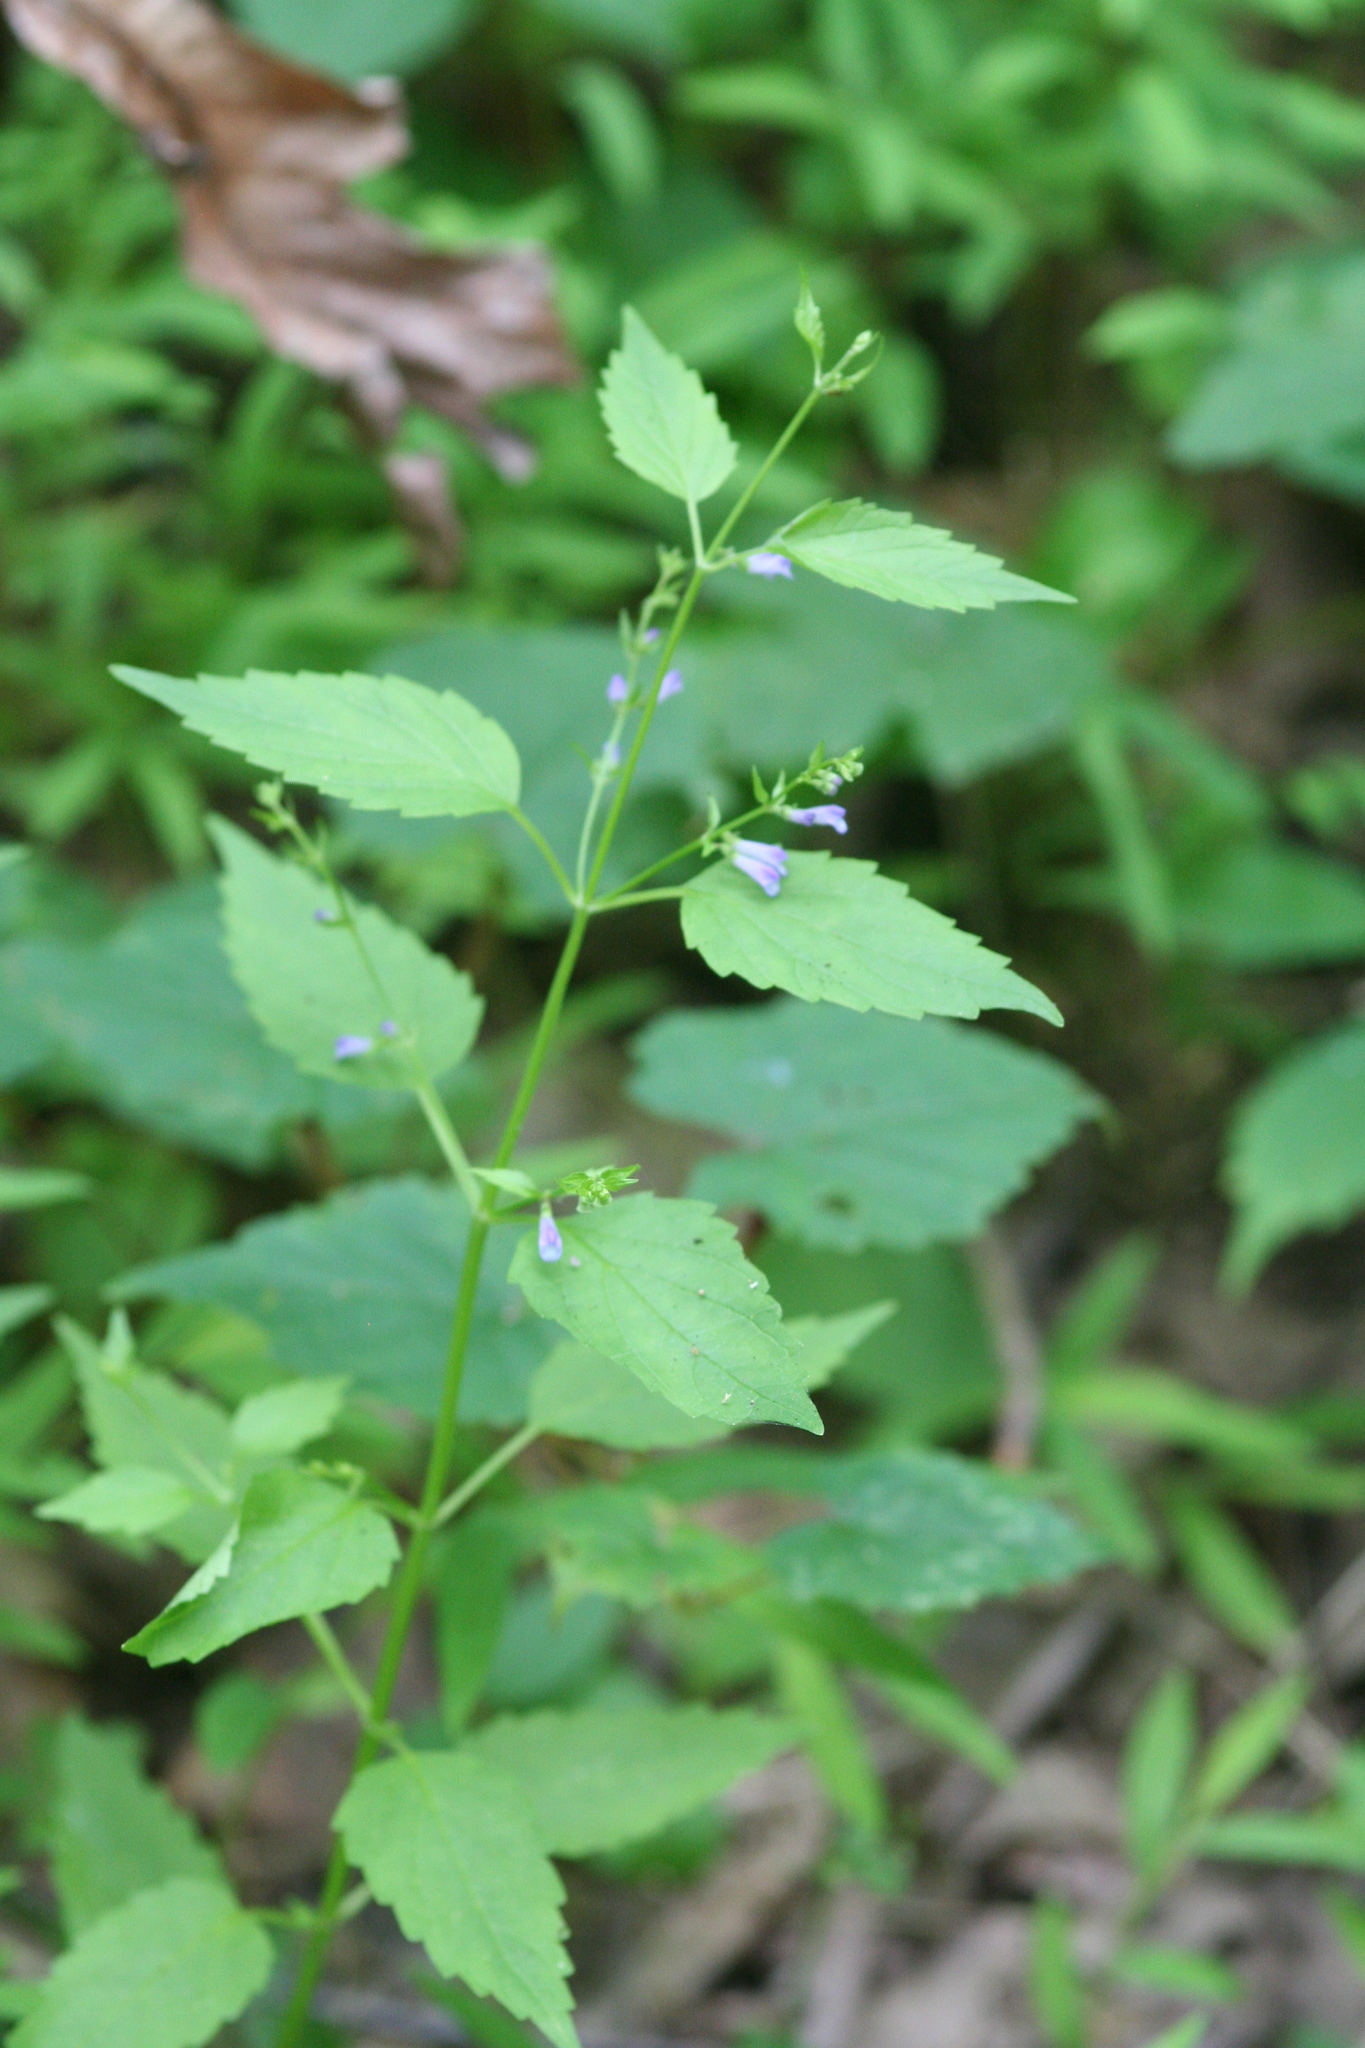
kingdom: Plantae
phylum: Tracheophyta
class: Magnoliopsida
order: Lamiales
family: Lamiaceae
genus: Scutellaria
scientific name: Scutellaria lateriflora
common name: Blue skullcap
